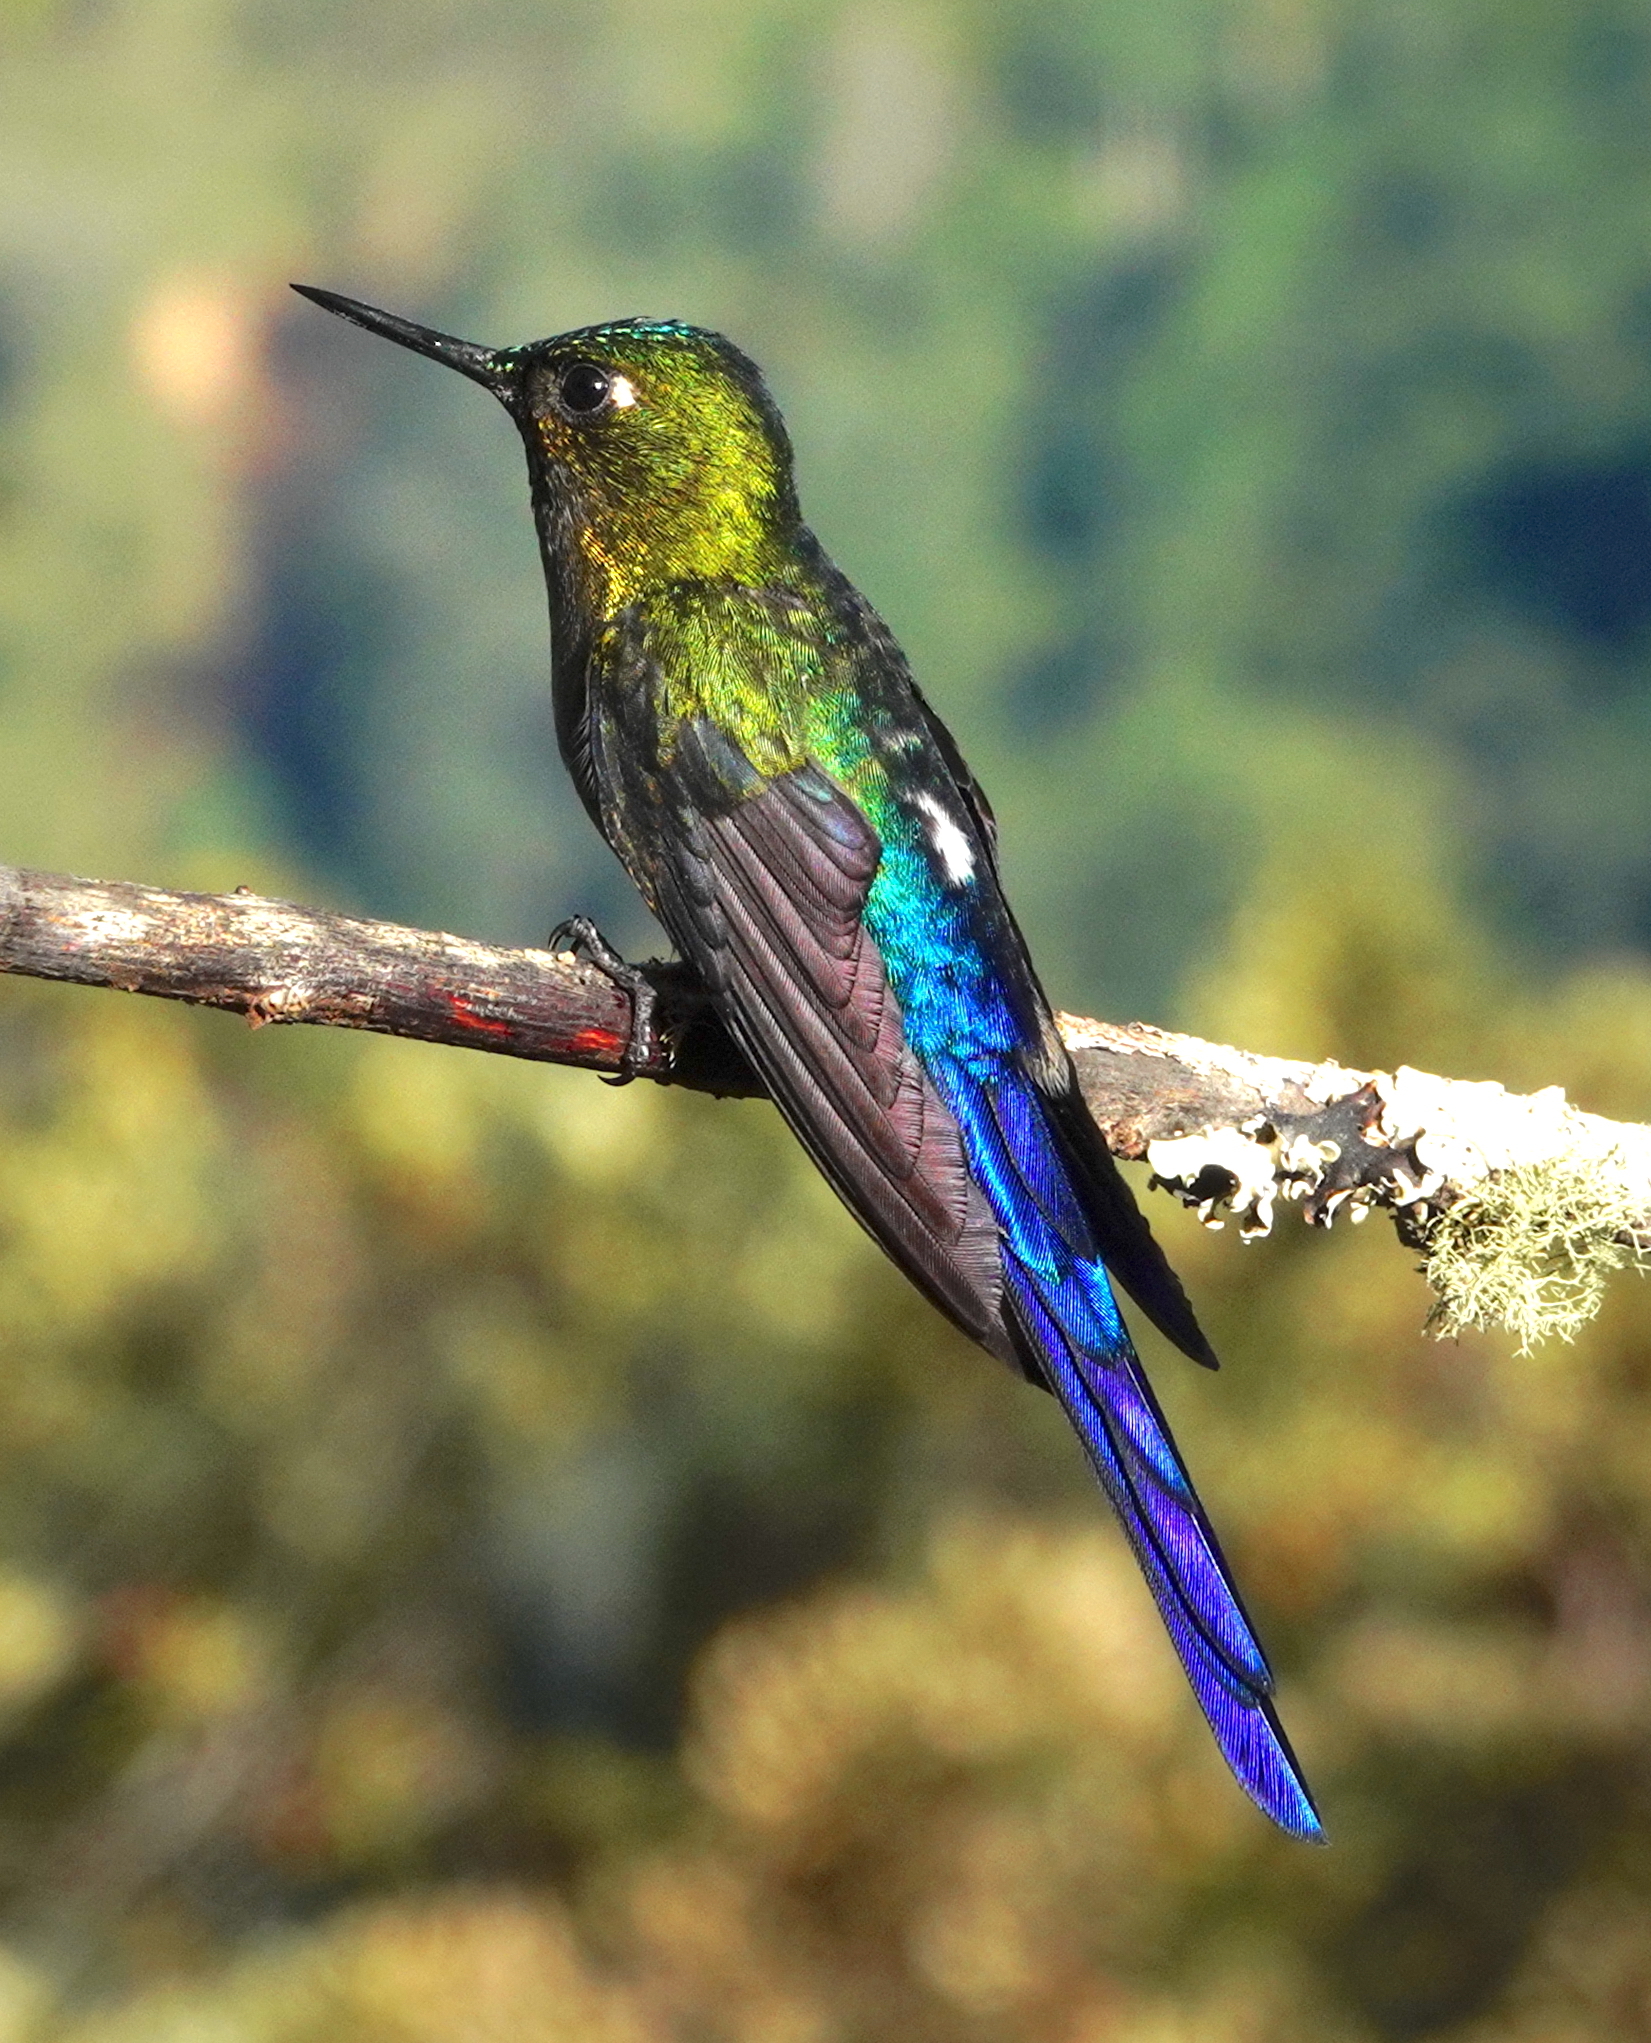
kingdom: Animalia
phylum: Chordata
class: Aves
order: Apodiformes
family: Trochilidae
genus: Aglaiocercus
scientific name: Aglaiocercus coelestis
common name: Violet-tailed sylph
